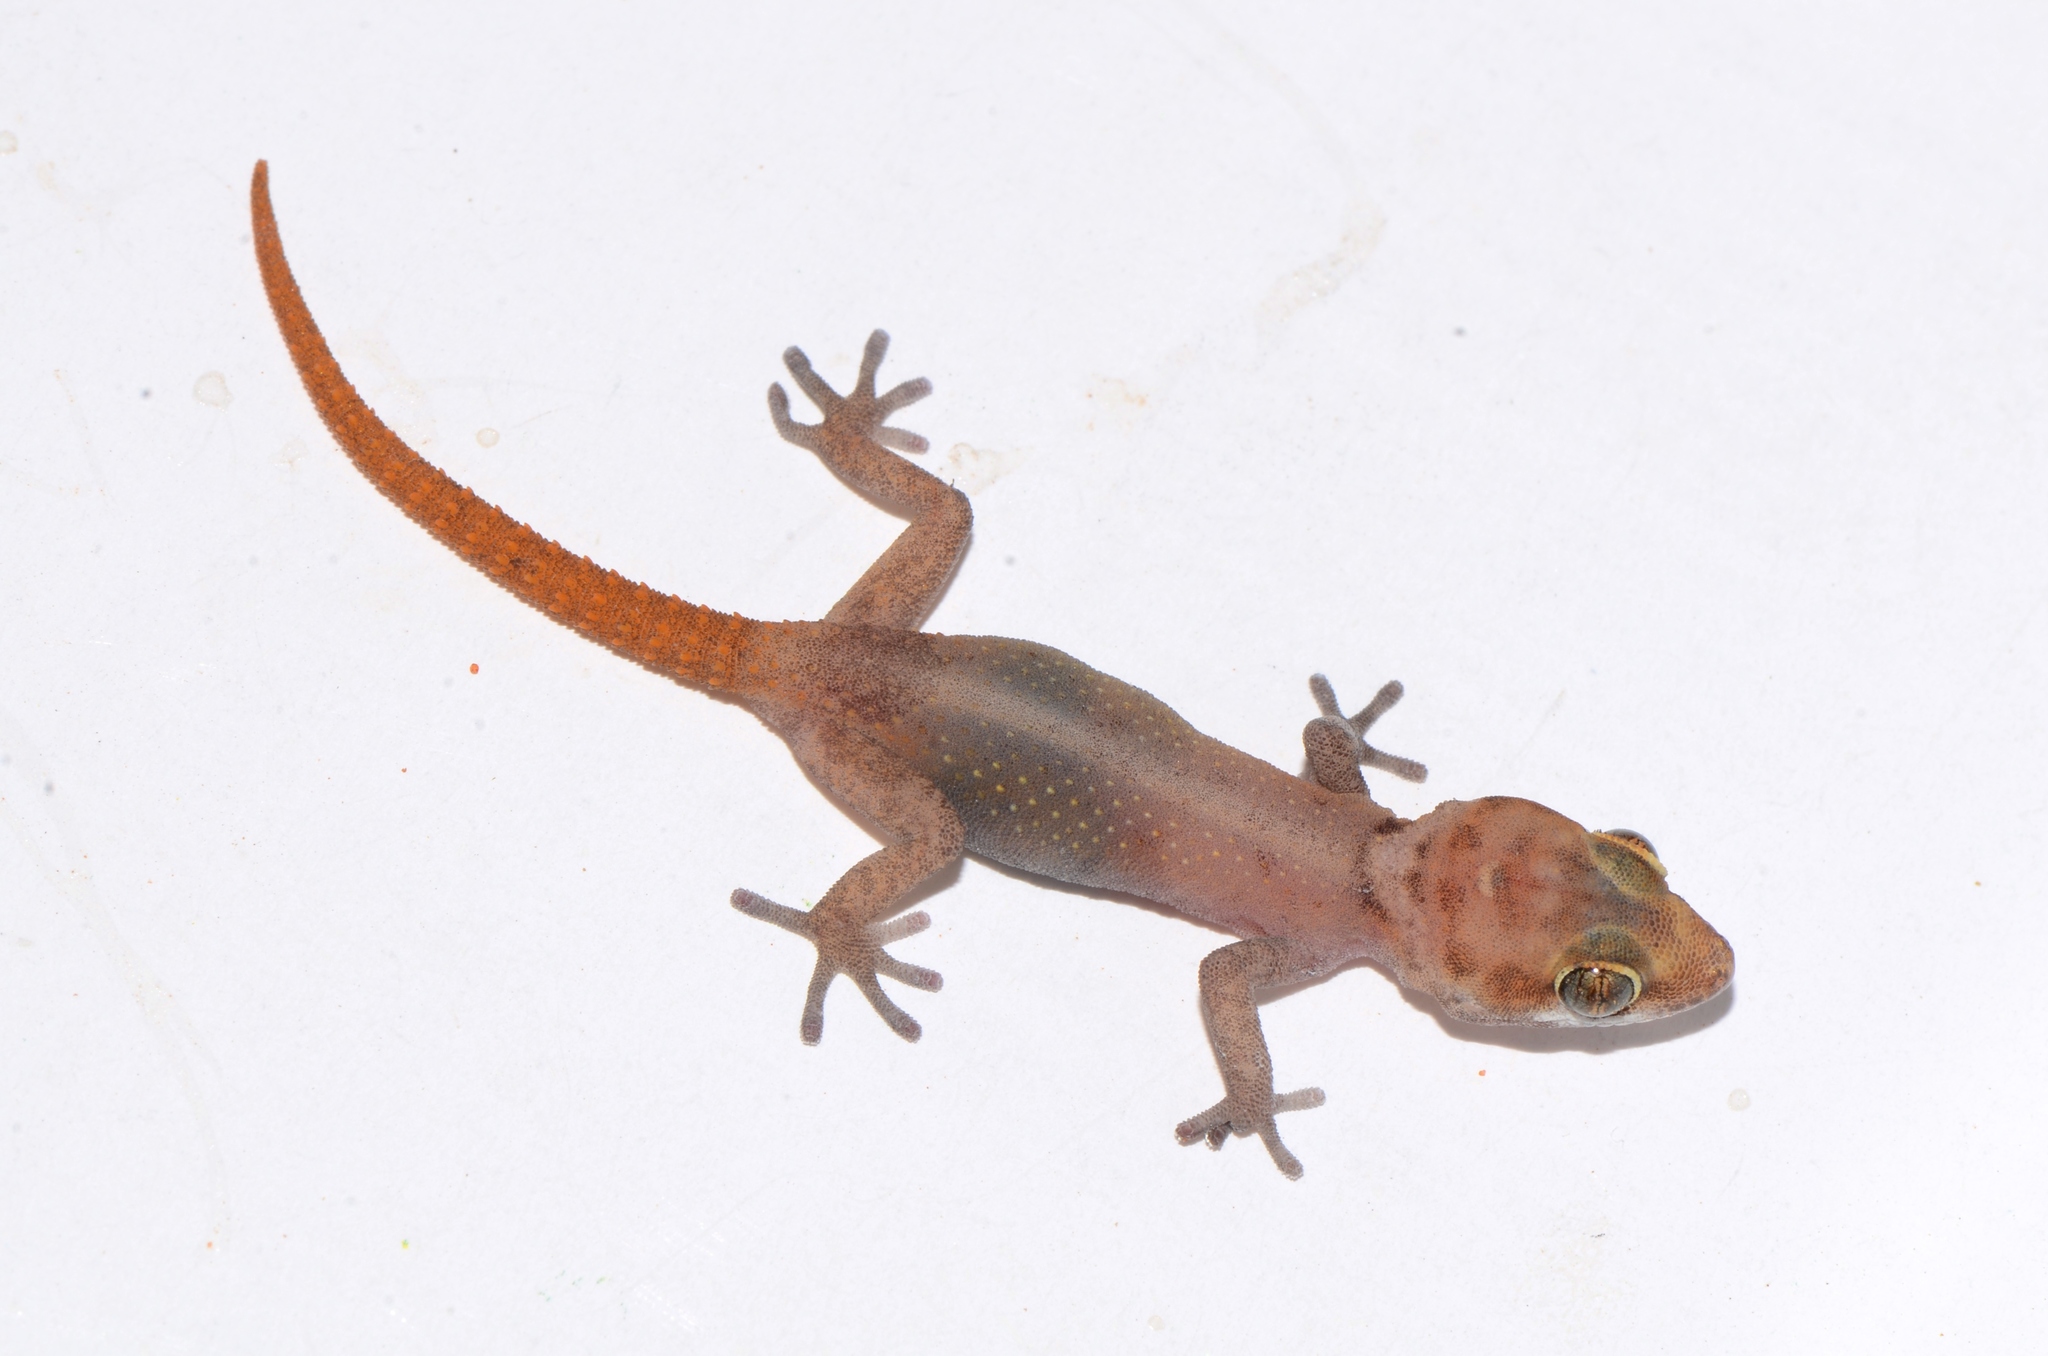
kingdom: Animalia
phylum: Chordata
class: Squamata
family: Gekkonidae
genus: Pachydactylus
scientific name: Pachydactylus atorquatus
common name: Augrabies gecko
